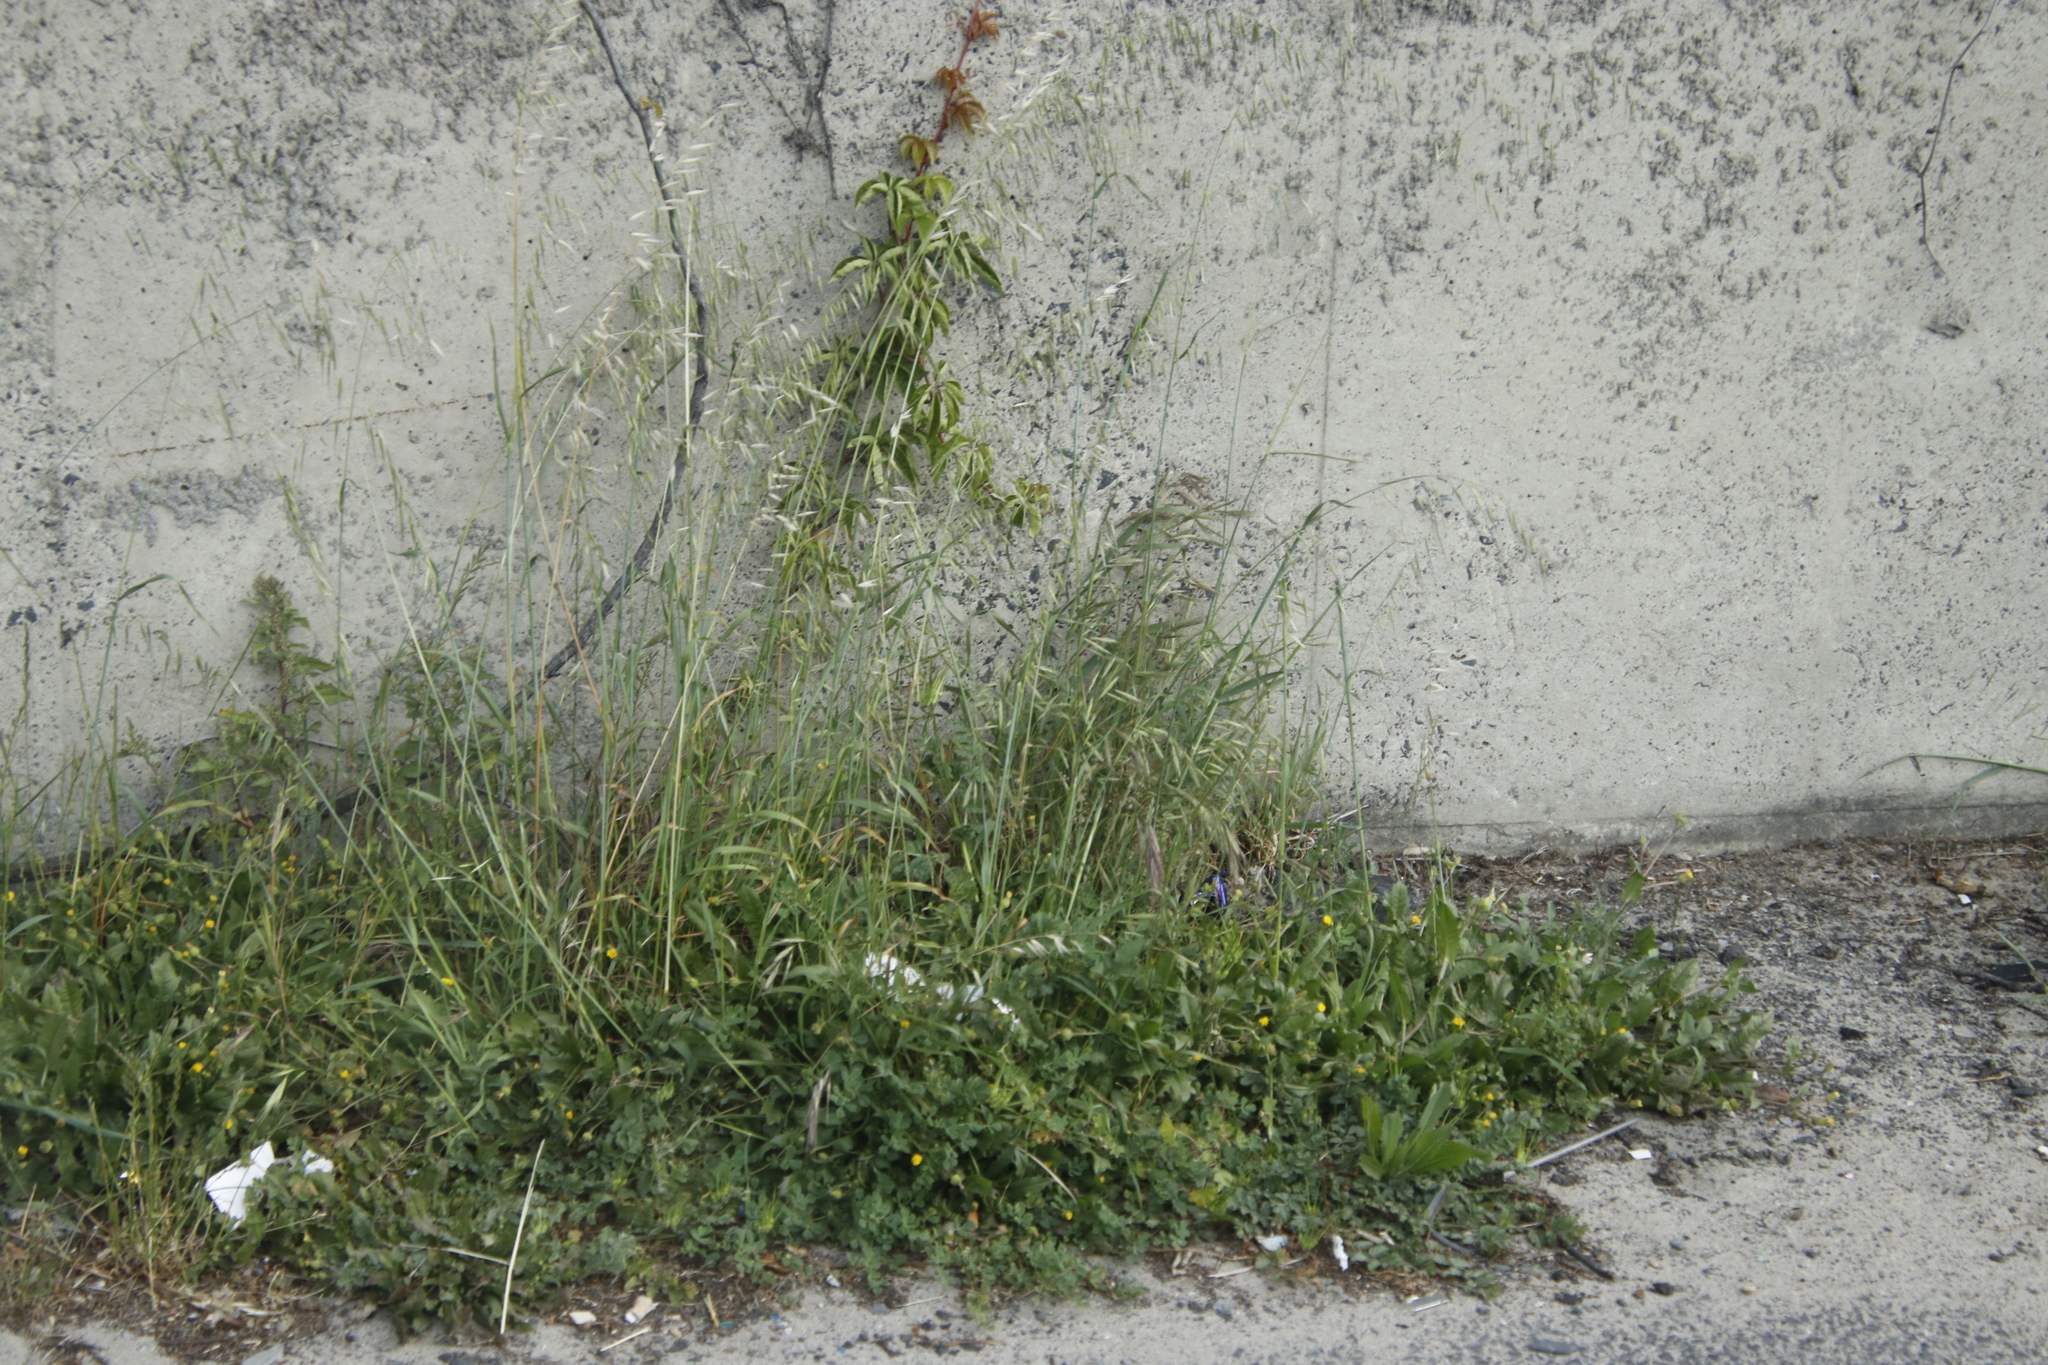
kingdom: Plantae
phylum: Tracheophyta
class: Liliopsida
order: Poales
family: Poaceae
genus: Avena
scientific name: Avena fatua
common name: Wild oat
